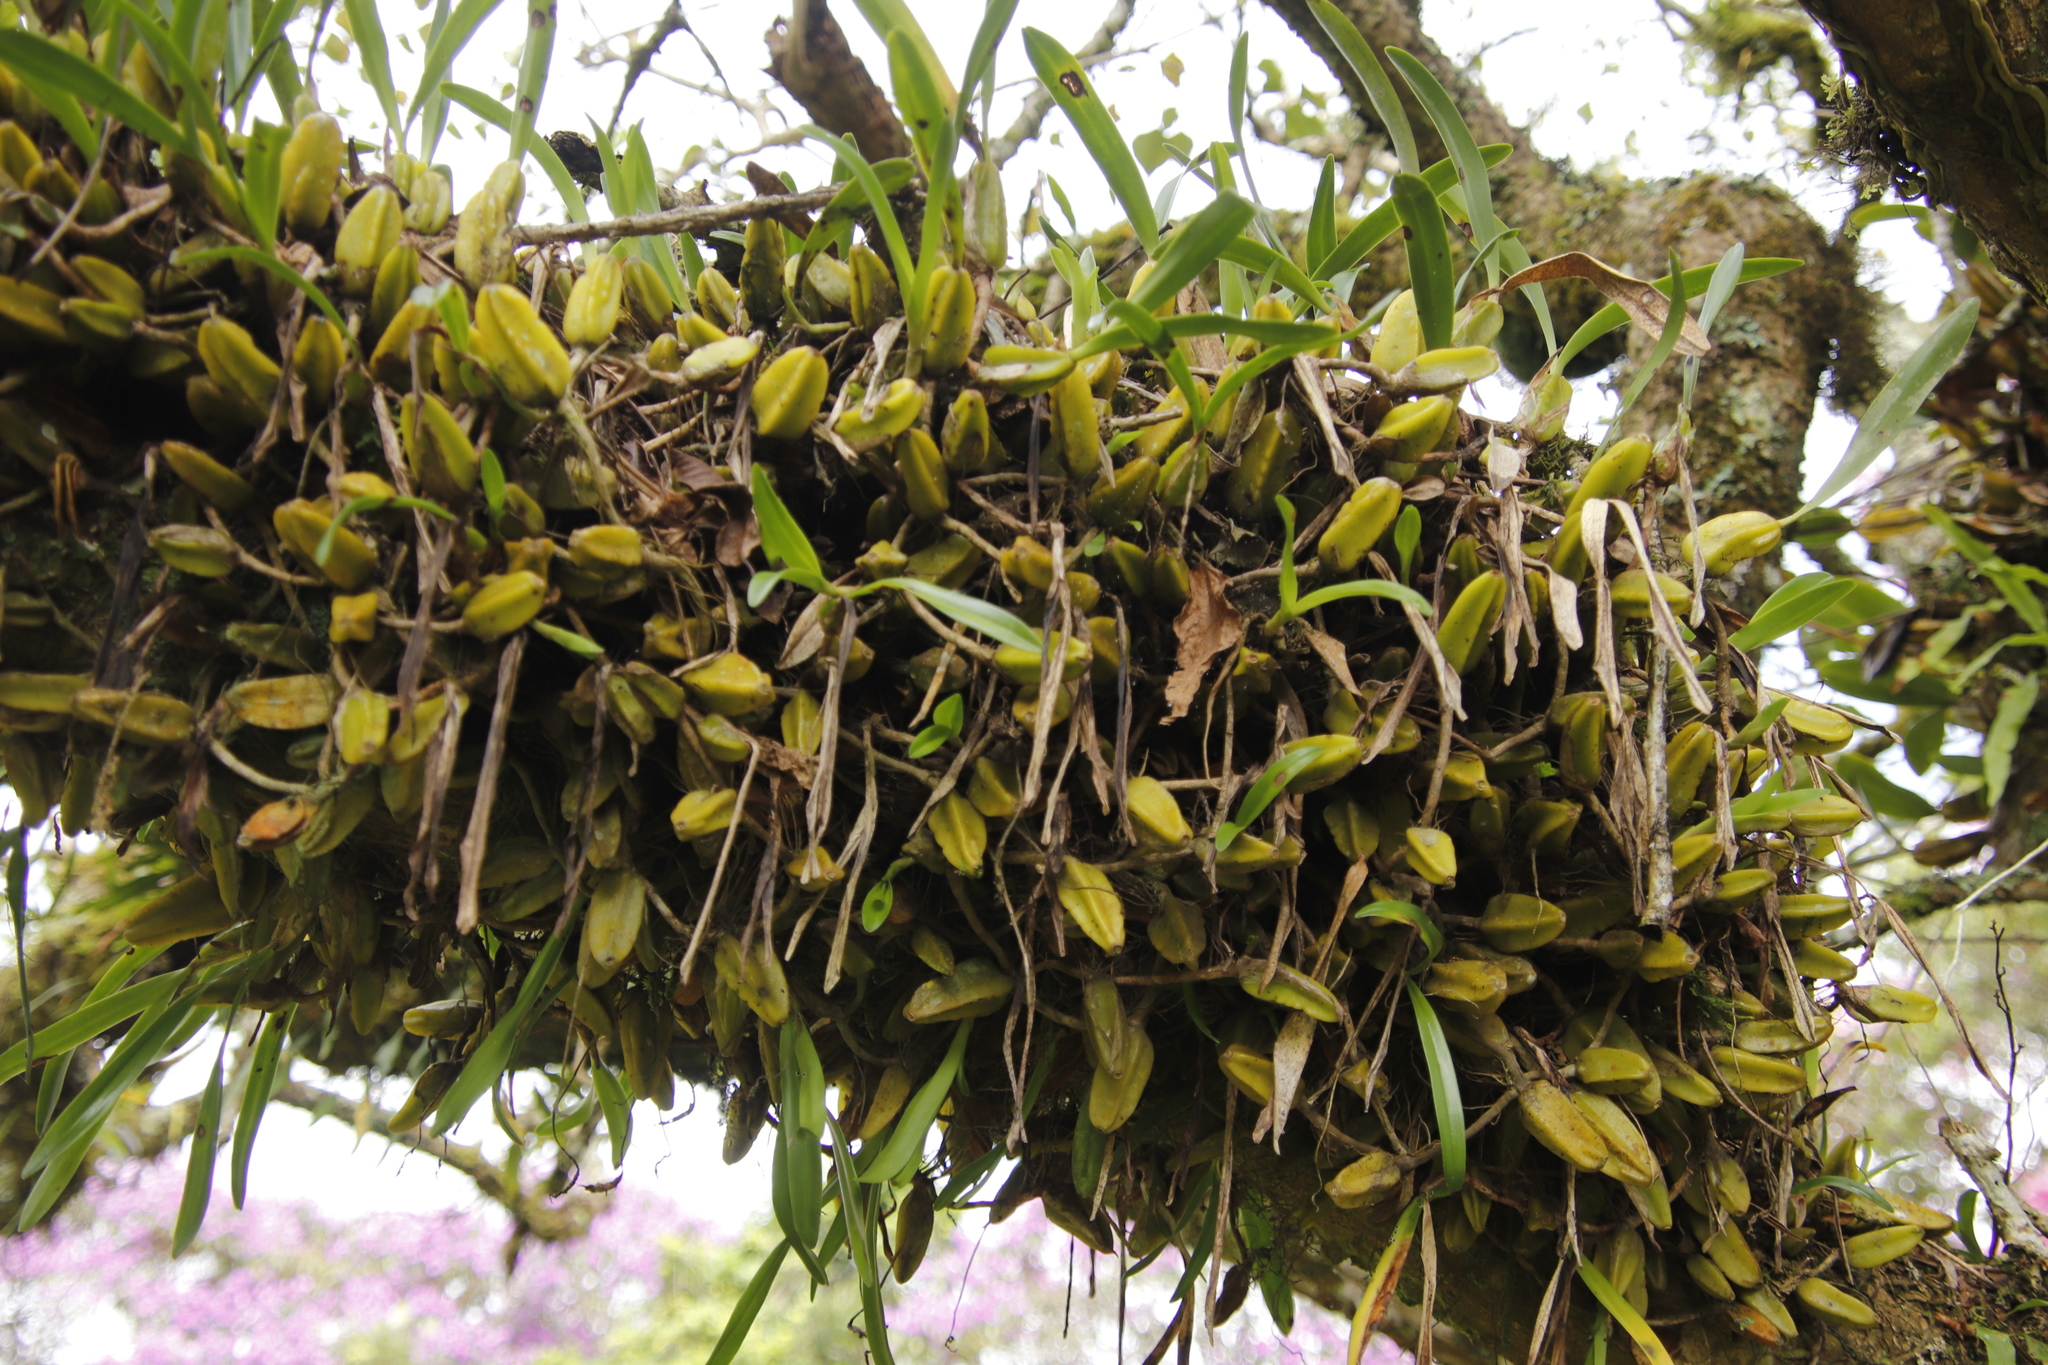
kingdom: Plantae
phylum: Tracheophyta
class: Liliopsida
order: Asparagales
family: Orchidaceae
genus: Bulbophyllum
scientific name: Bulbophyllum maximum
